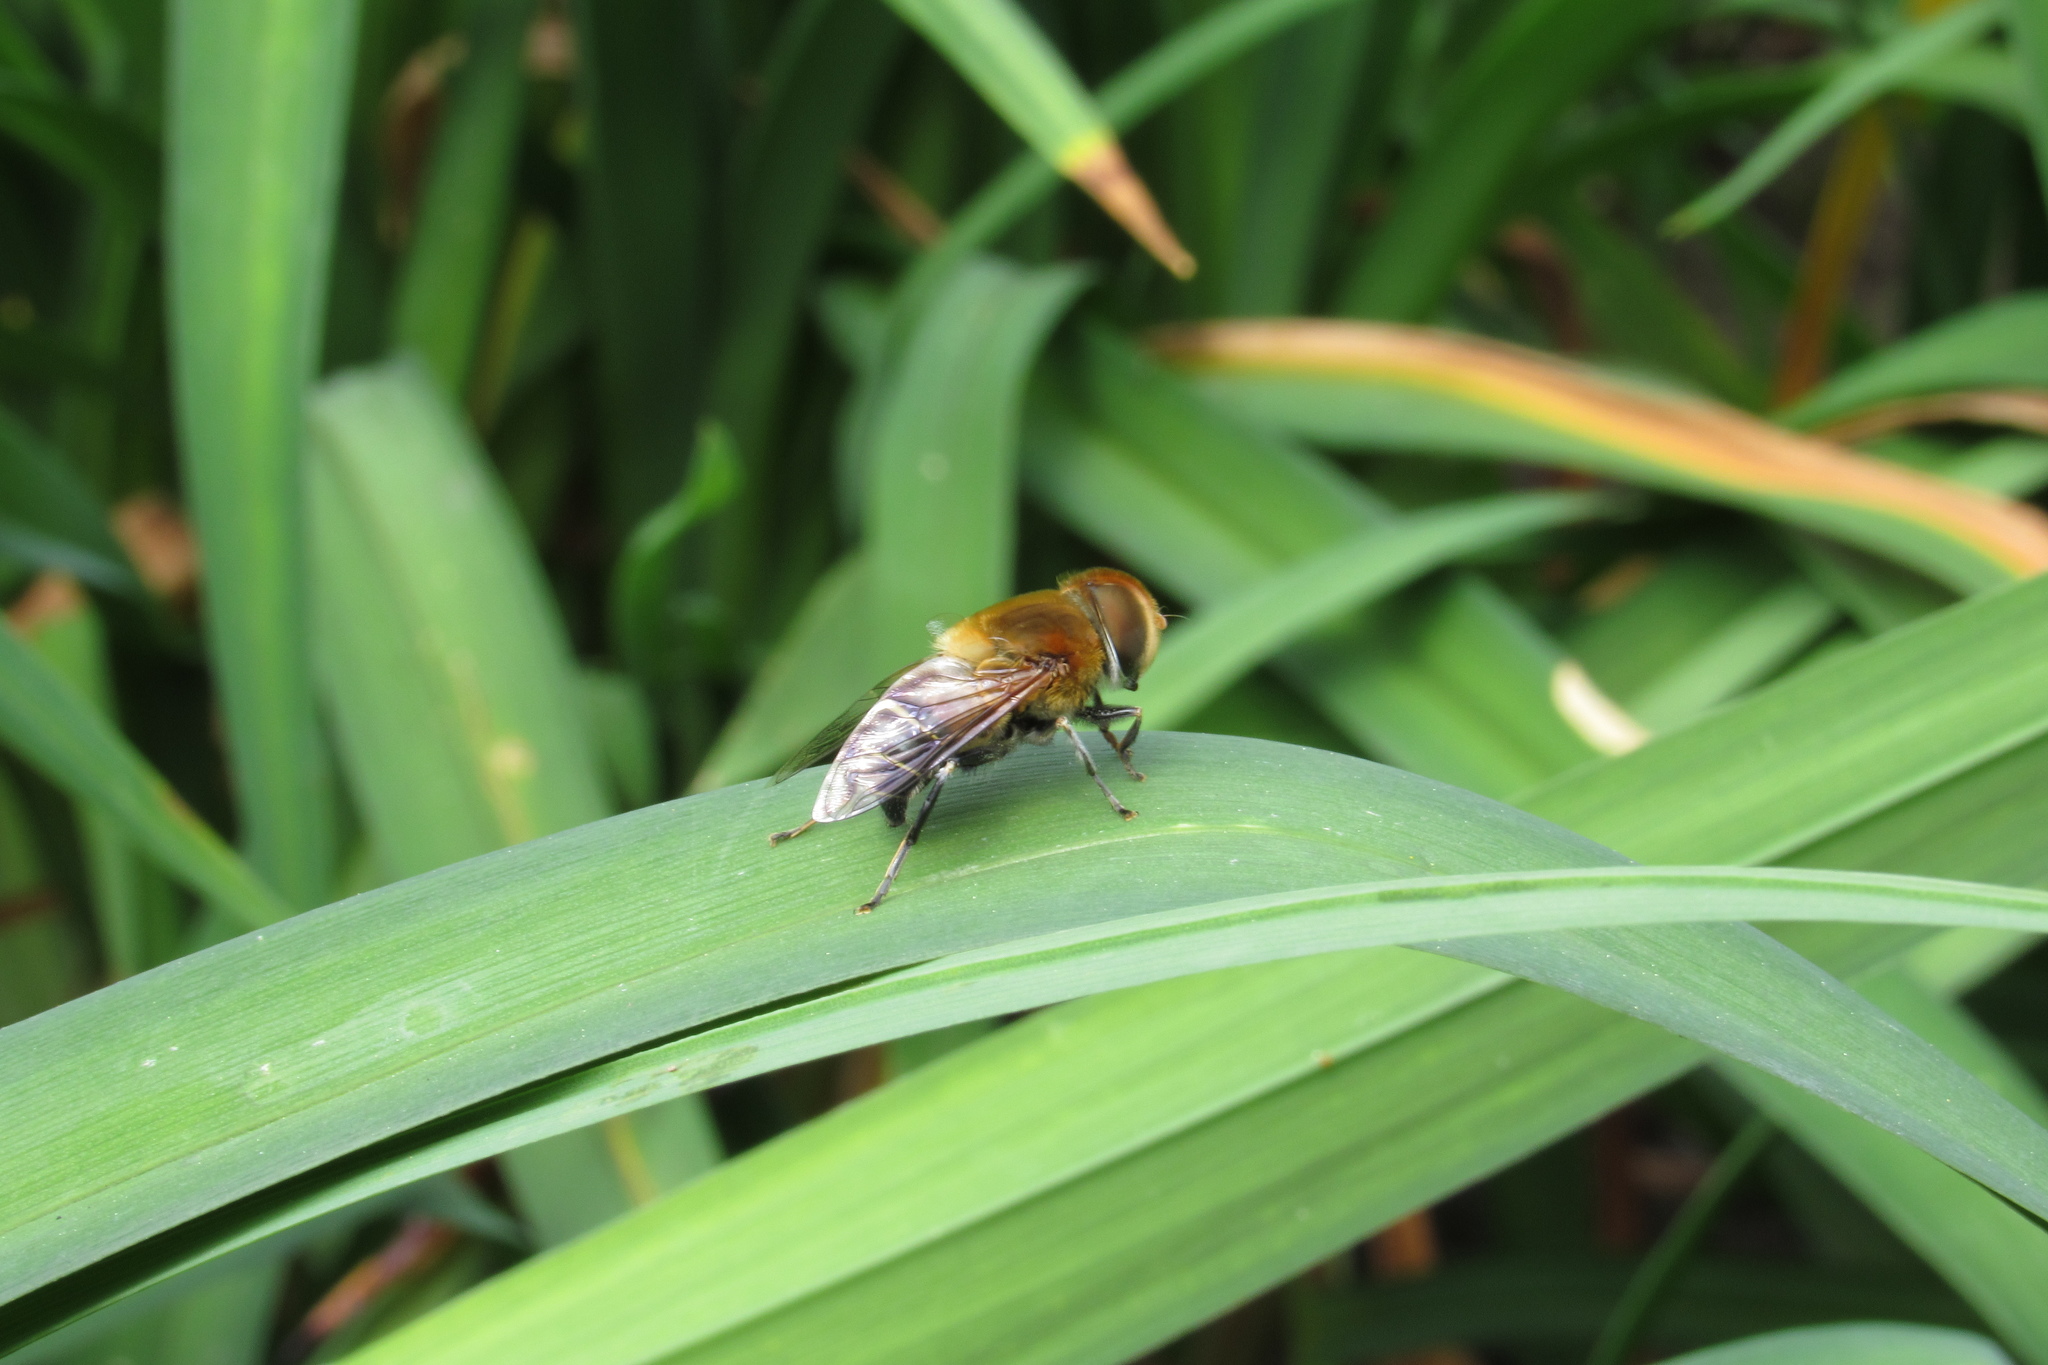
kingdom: Animalia
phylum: Arthropoda
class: Insecta
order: Diptera
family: Syrphidae
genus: Palpada
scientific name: Palpada ruficeps
